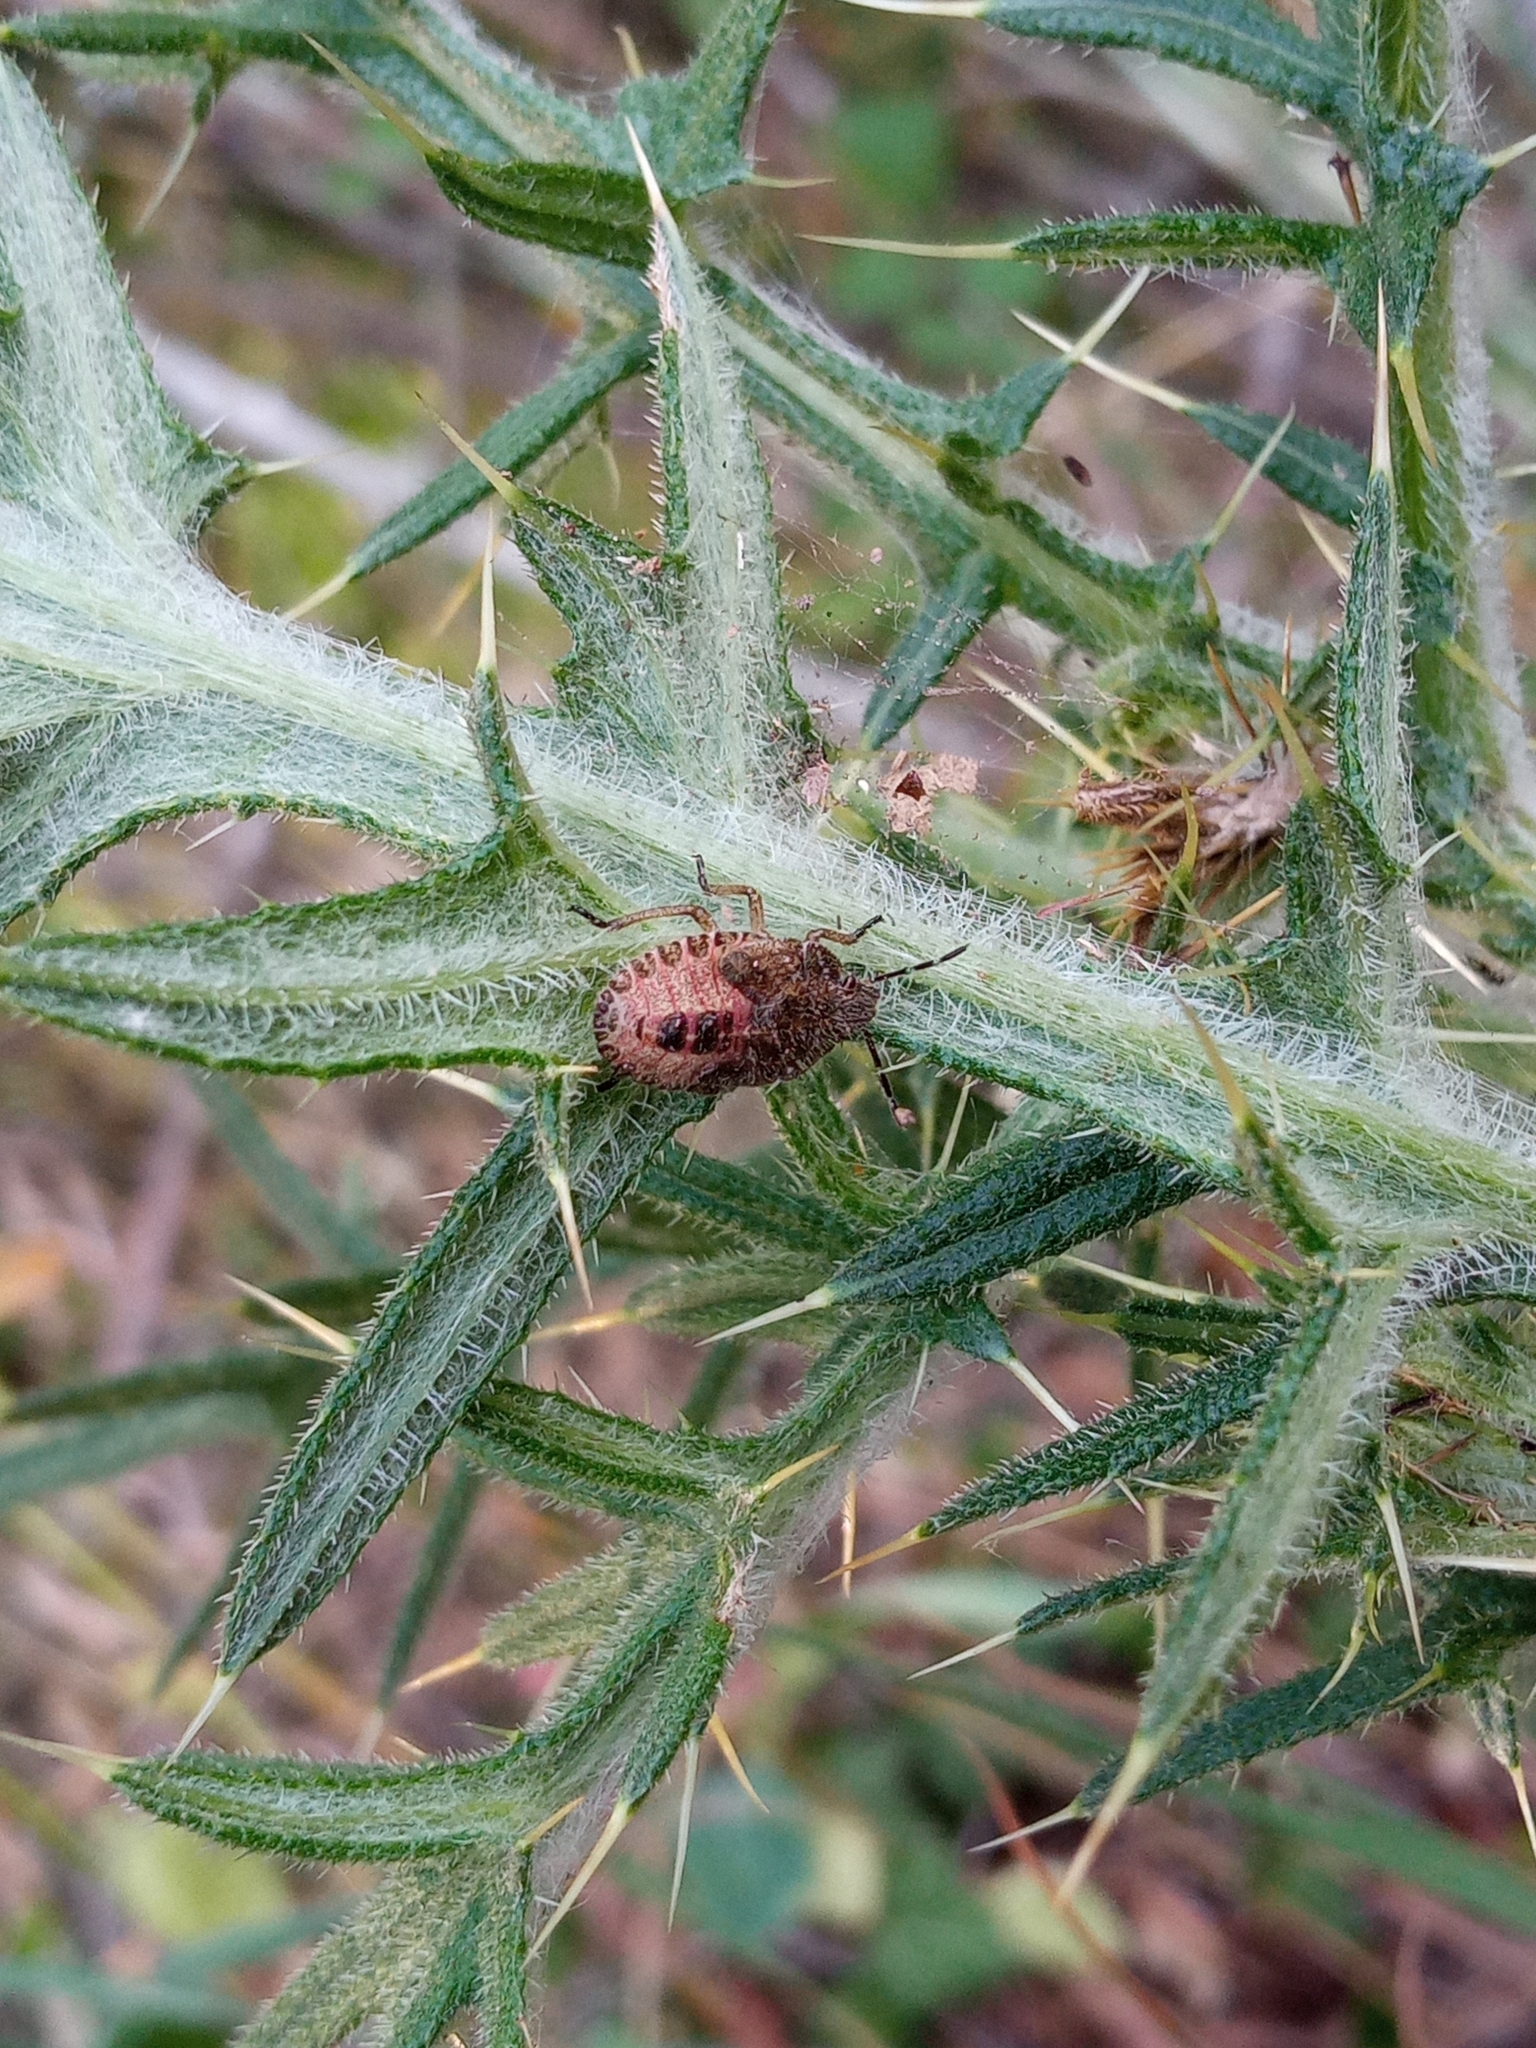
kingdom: Animalia
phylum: Arthropoda
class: Insecta
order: Hemiptera
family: Pentatomidae
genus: Dolycoris
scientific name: Dolycoris baccarum
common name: Sloe bug
